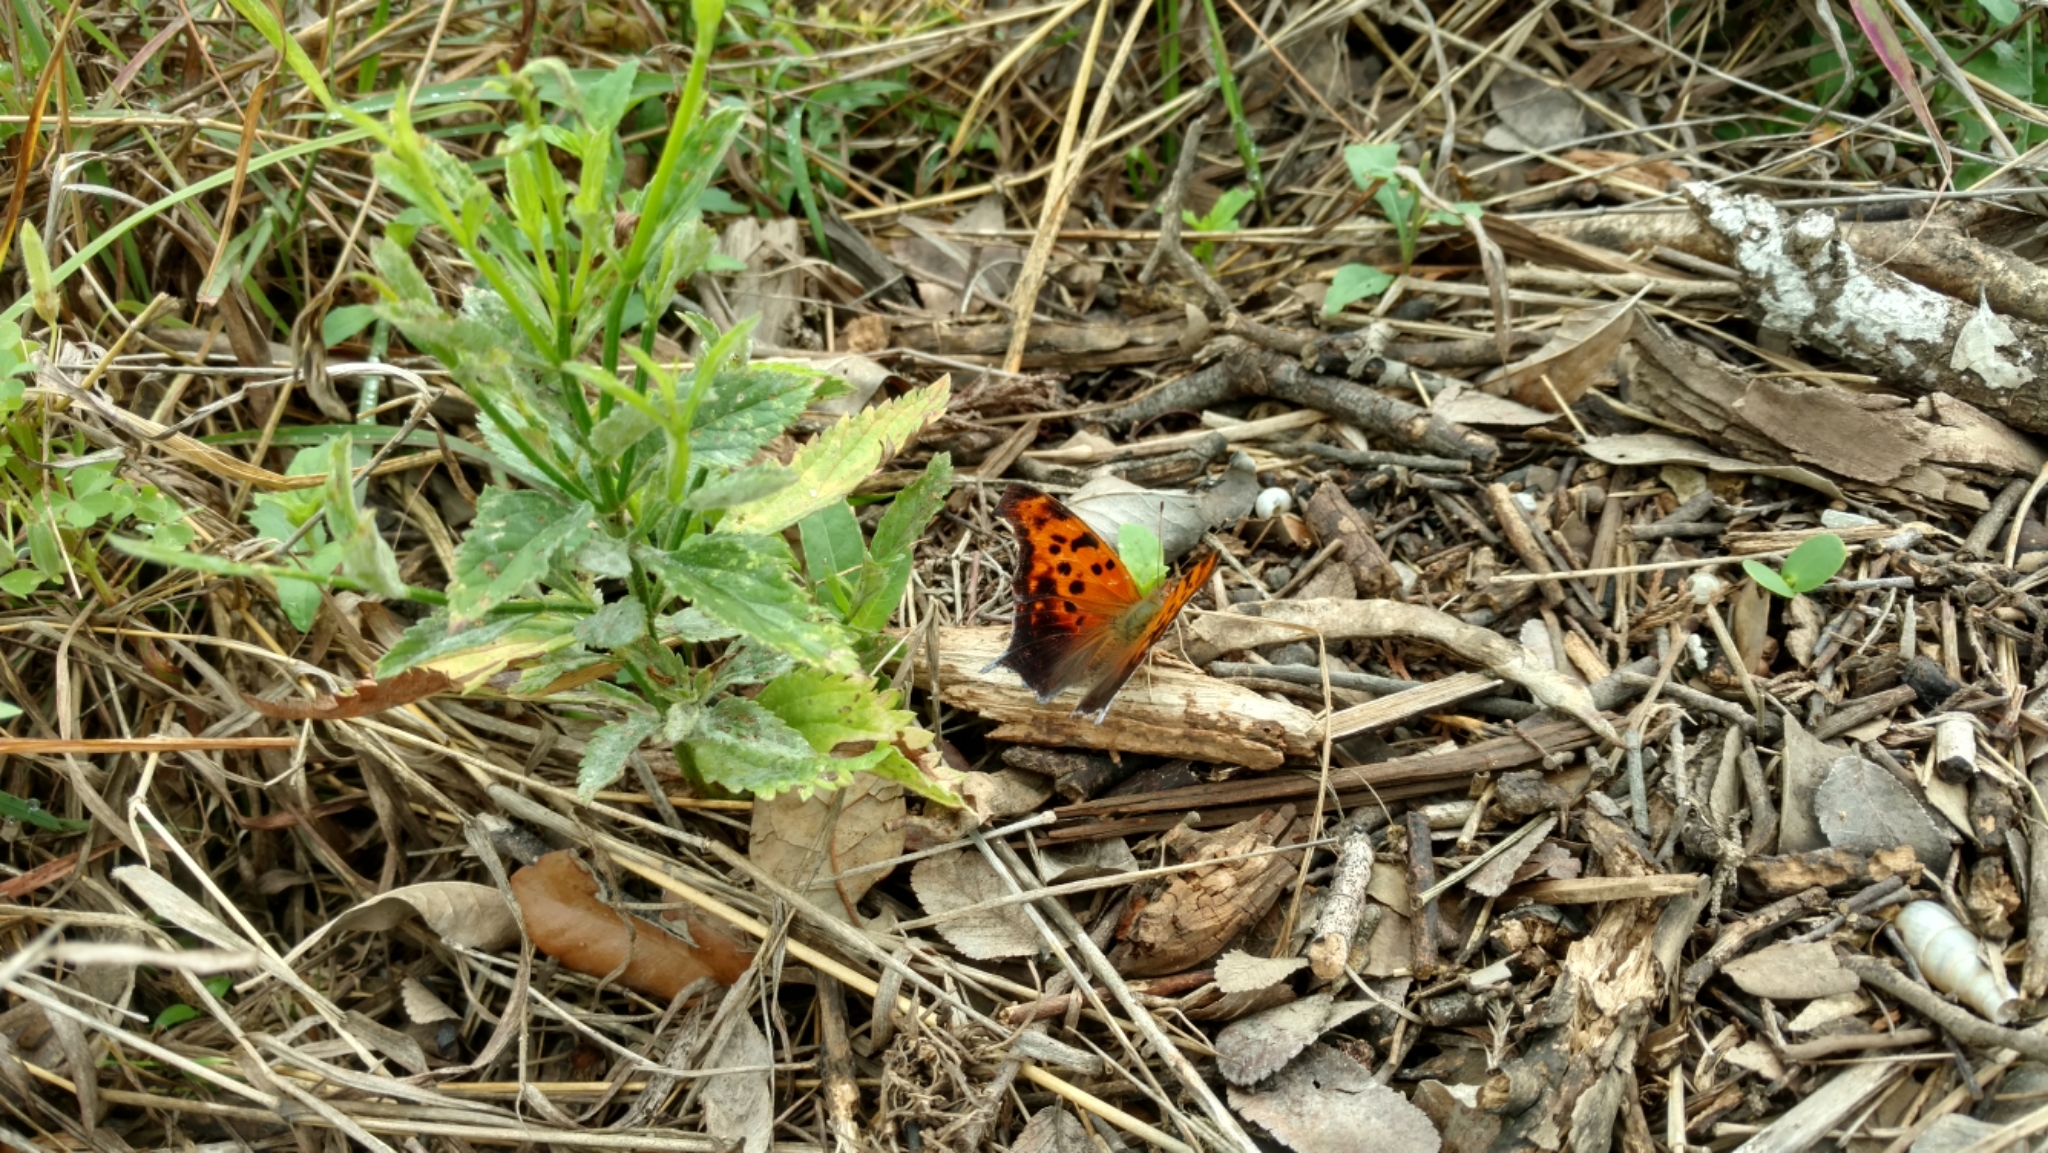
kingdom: Animalia
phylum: Arthropoda
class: Insecta
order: Lepidoptera
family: Nymphalidae
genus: Polygonia
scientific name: Polygonia interrogationis
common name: Question mark
